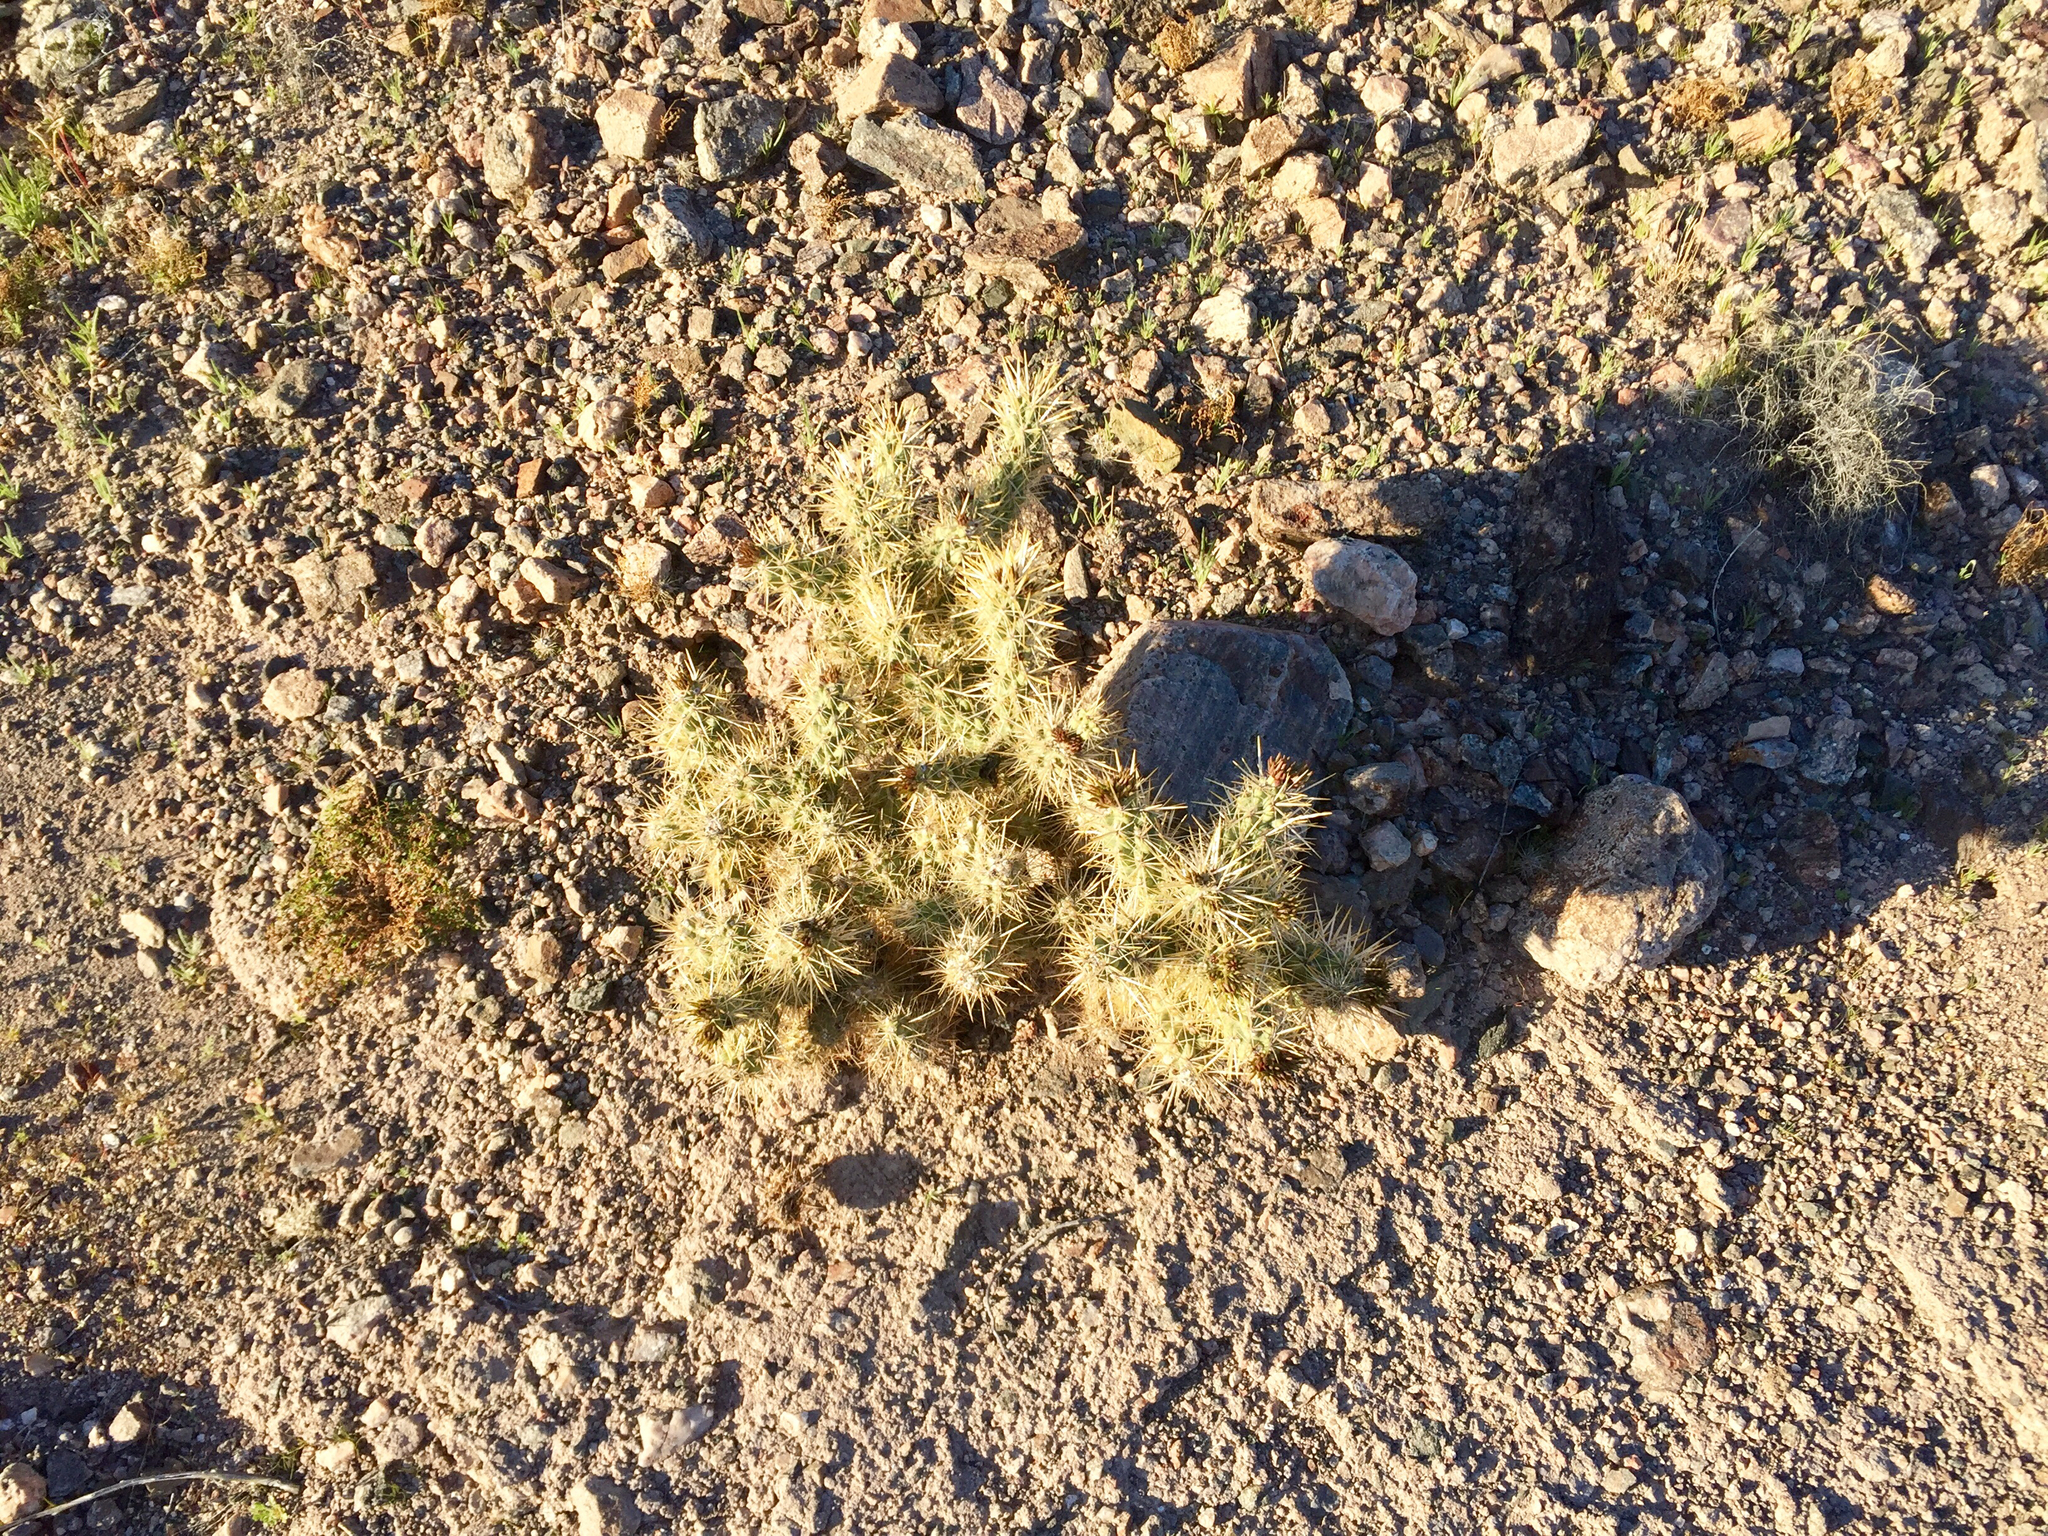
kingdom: Plantae
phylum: Tracheophyta
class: Magnoliopsida
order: Caryophyllales
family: Cactaceae
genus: Cylindropuntia
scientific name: Cylindropuntia whipplei
